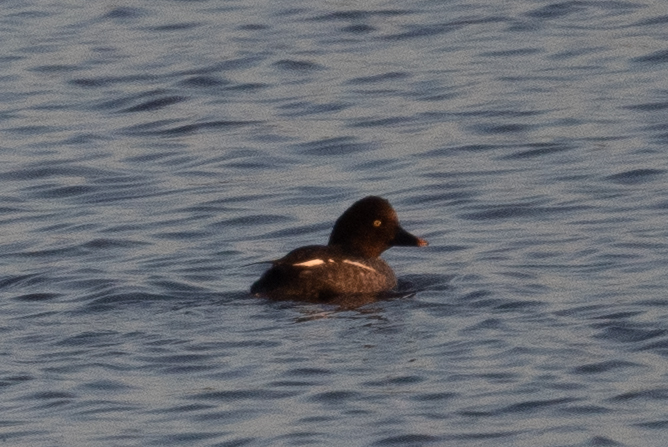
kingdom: Animalia
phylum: Chordata
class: Aves
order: Anseriformes
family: Anatidae
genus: Bucephala
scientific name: Bucephala clangula
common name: Common goldeneye
